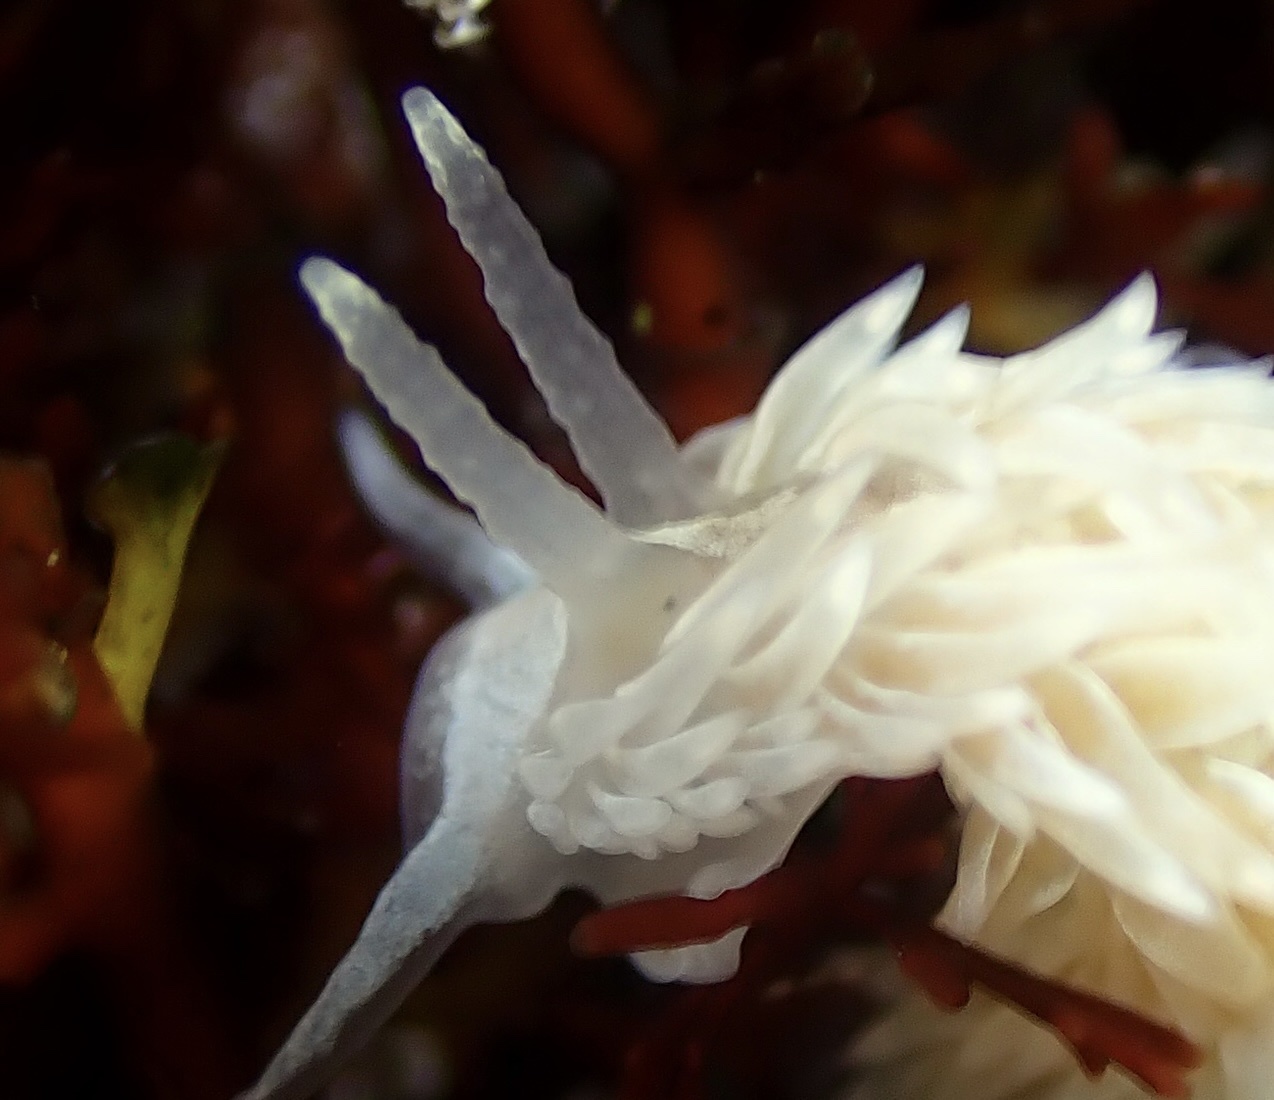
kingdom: Animalia
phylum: Mollusca
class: Gastropoda
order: Nudibranchia
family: Aeolidiidae
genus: Aeolidia
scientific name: Aeolidia loui
